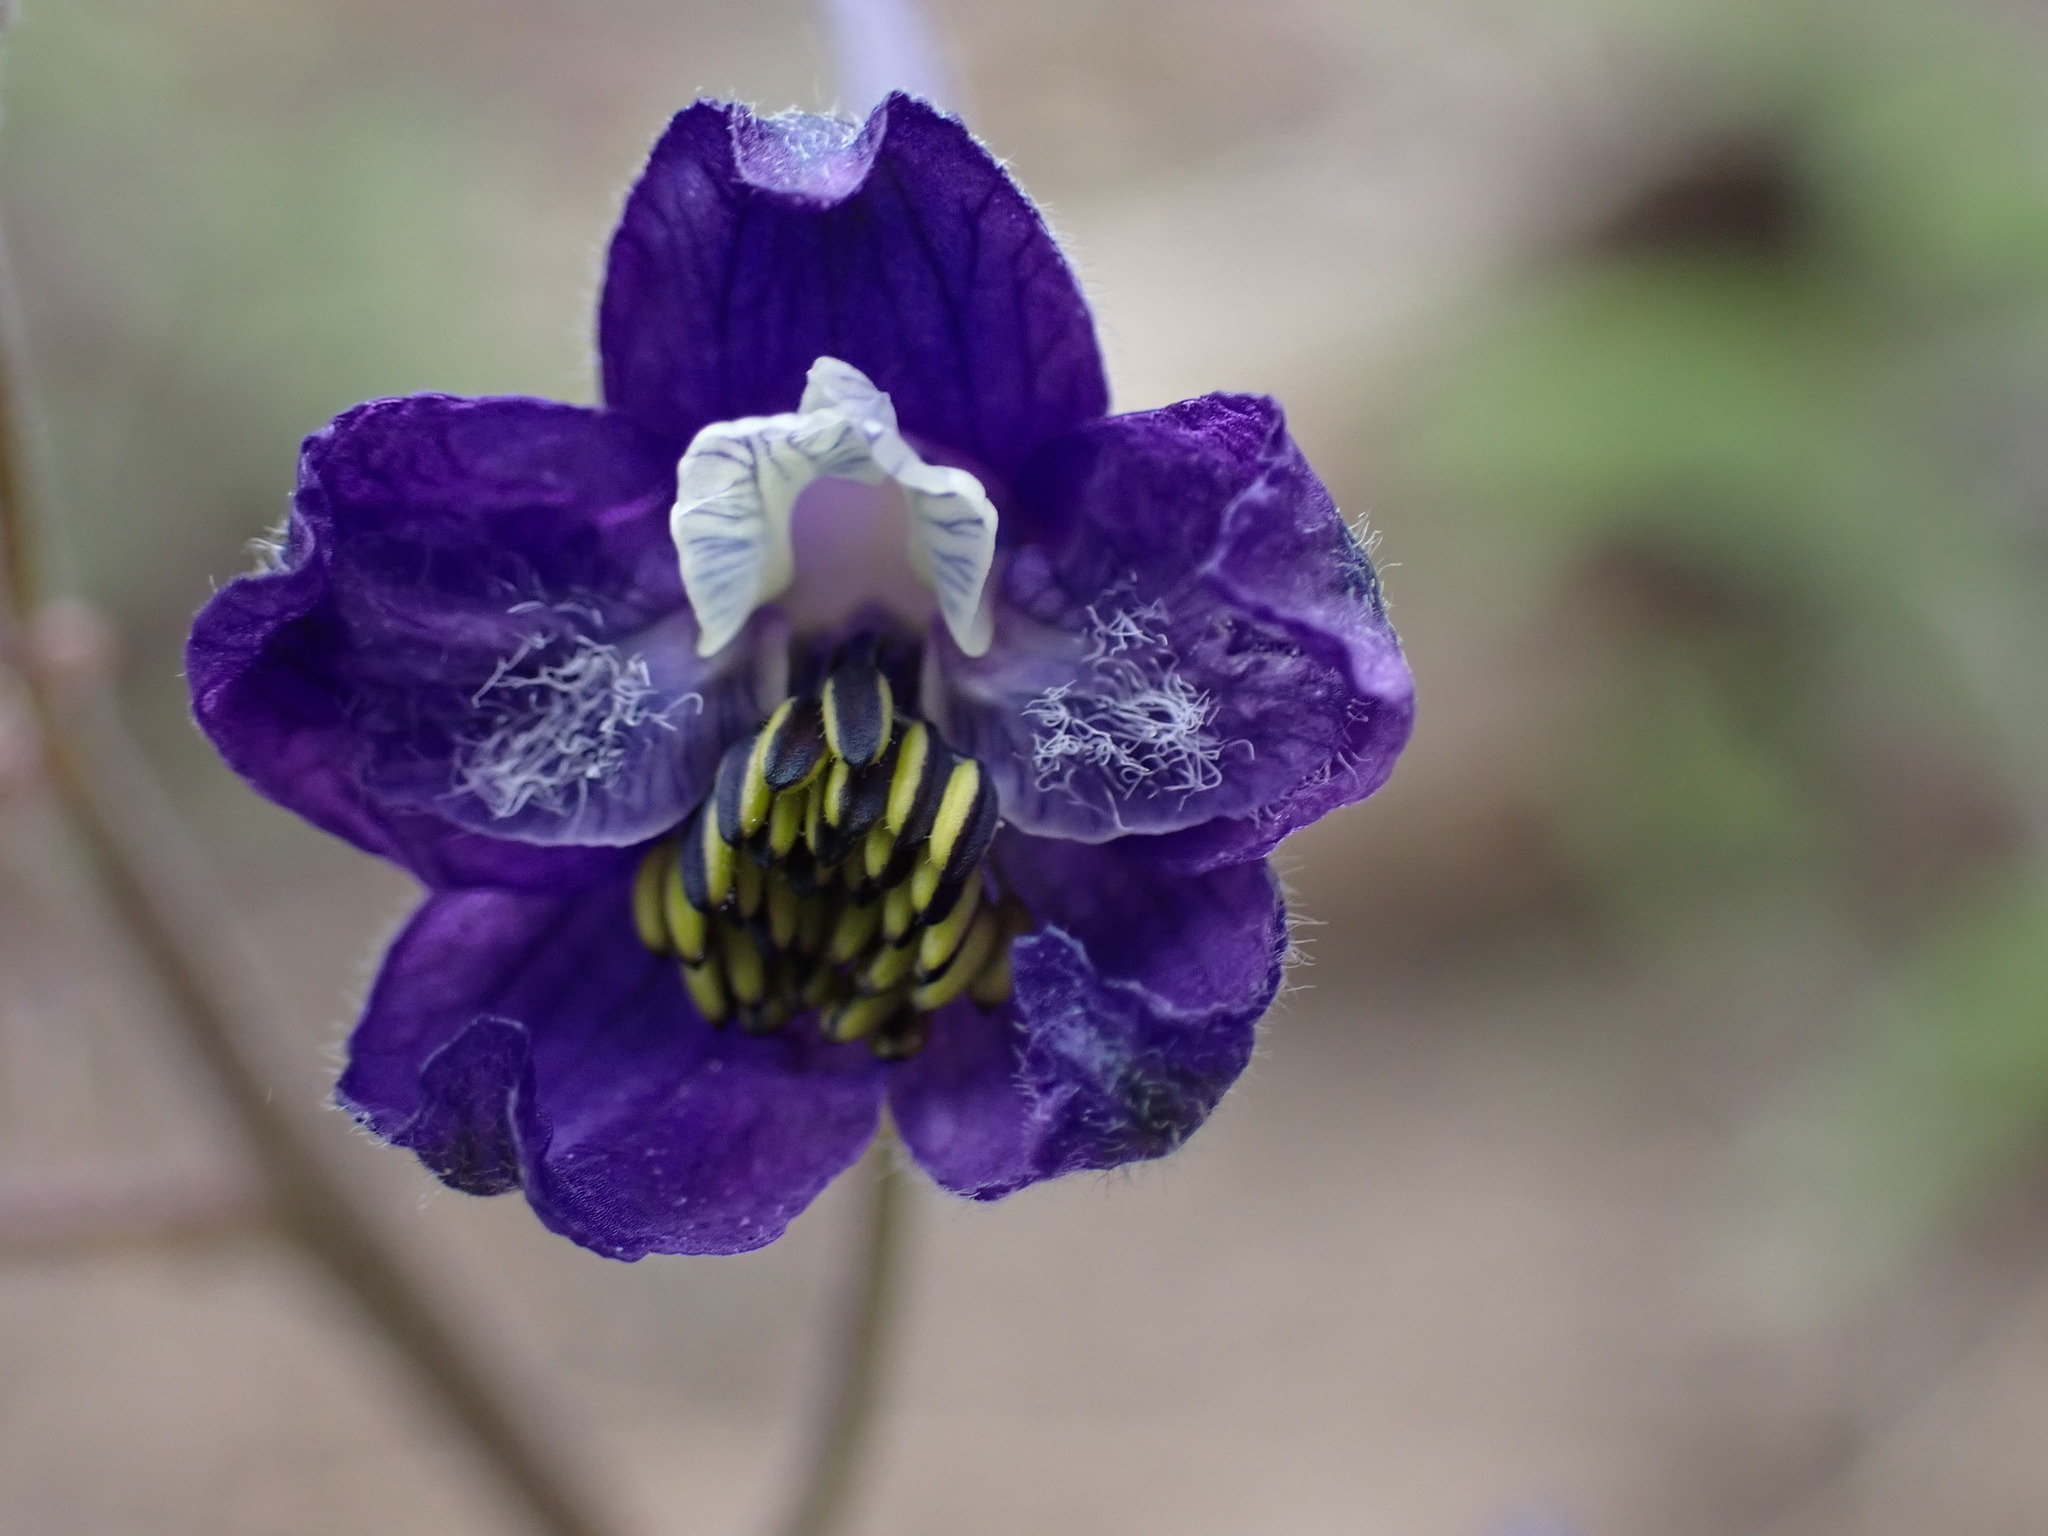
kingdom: Plantae
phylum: Tracheophyta
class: Magnoliopsida
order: Ranunculales
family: Ranunculaceae
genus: Delphinium
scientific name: Delphinium nuttallianum
